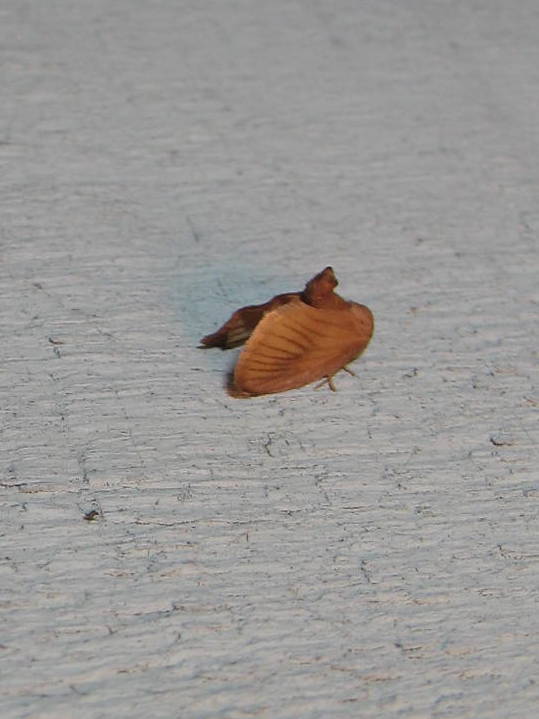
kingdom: Animalia
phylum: Arthropoda
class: Insecta
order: Lepidoptera
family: Limacodidae
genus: Tortricidia
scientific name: Tortricidia testacea
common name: Early button slug moth
